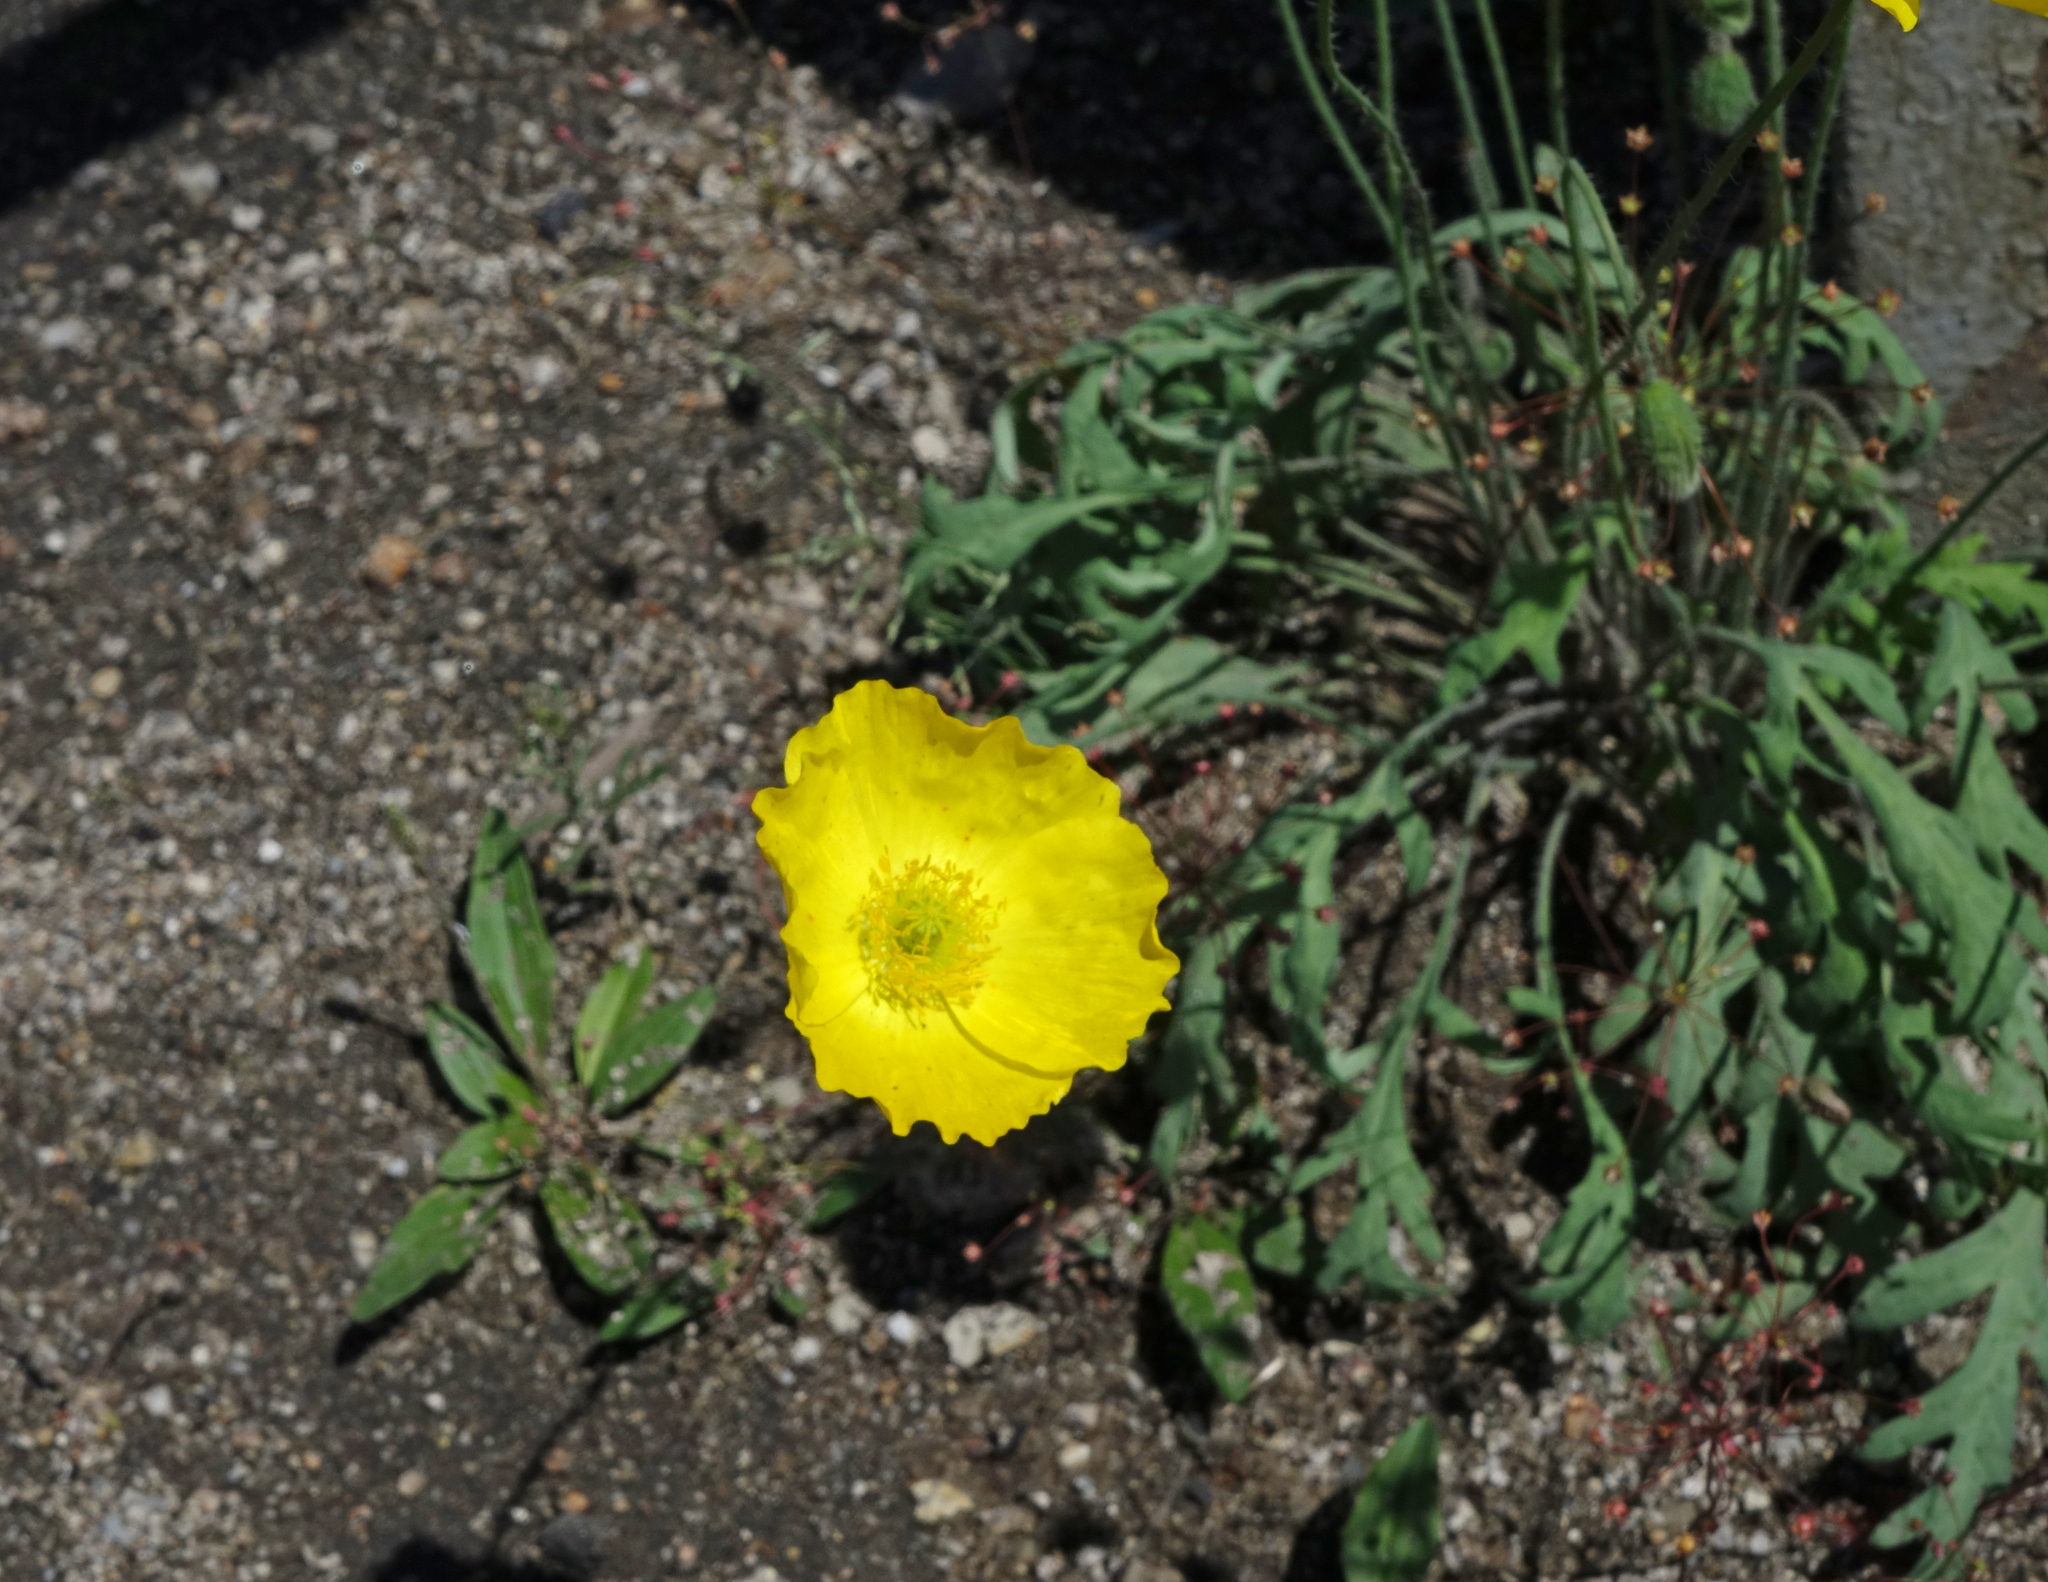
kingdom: Plantae
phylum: Tracheophyta
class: Magnoliopsida
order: Ranunculales
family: Papaveraceae
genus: Papaver
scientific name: Papaver nudicaule
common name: Arctic poppy
